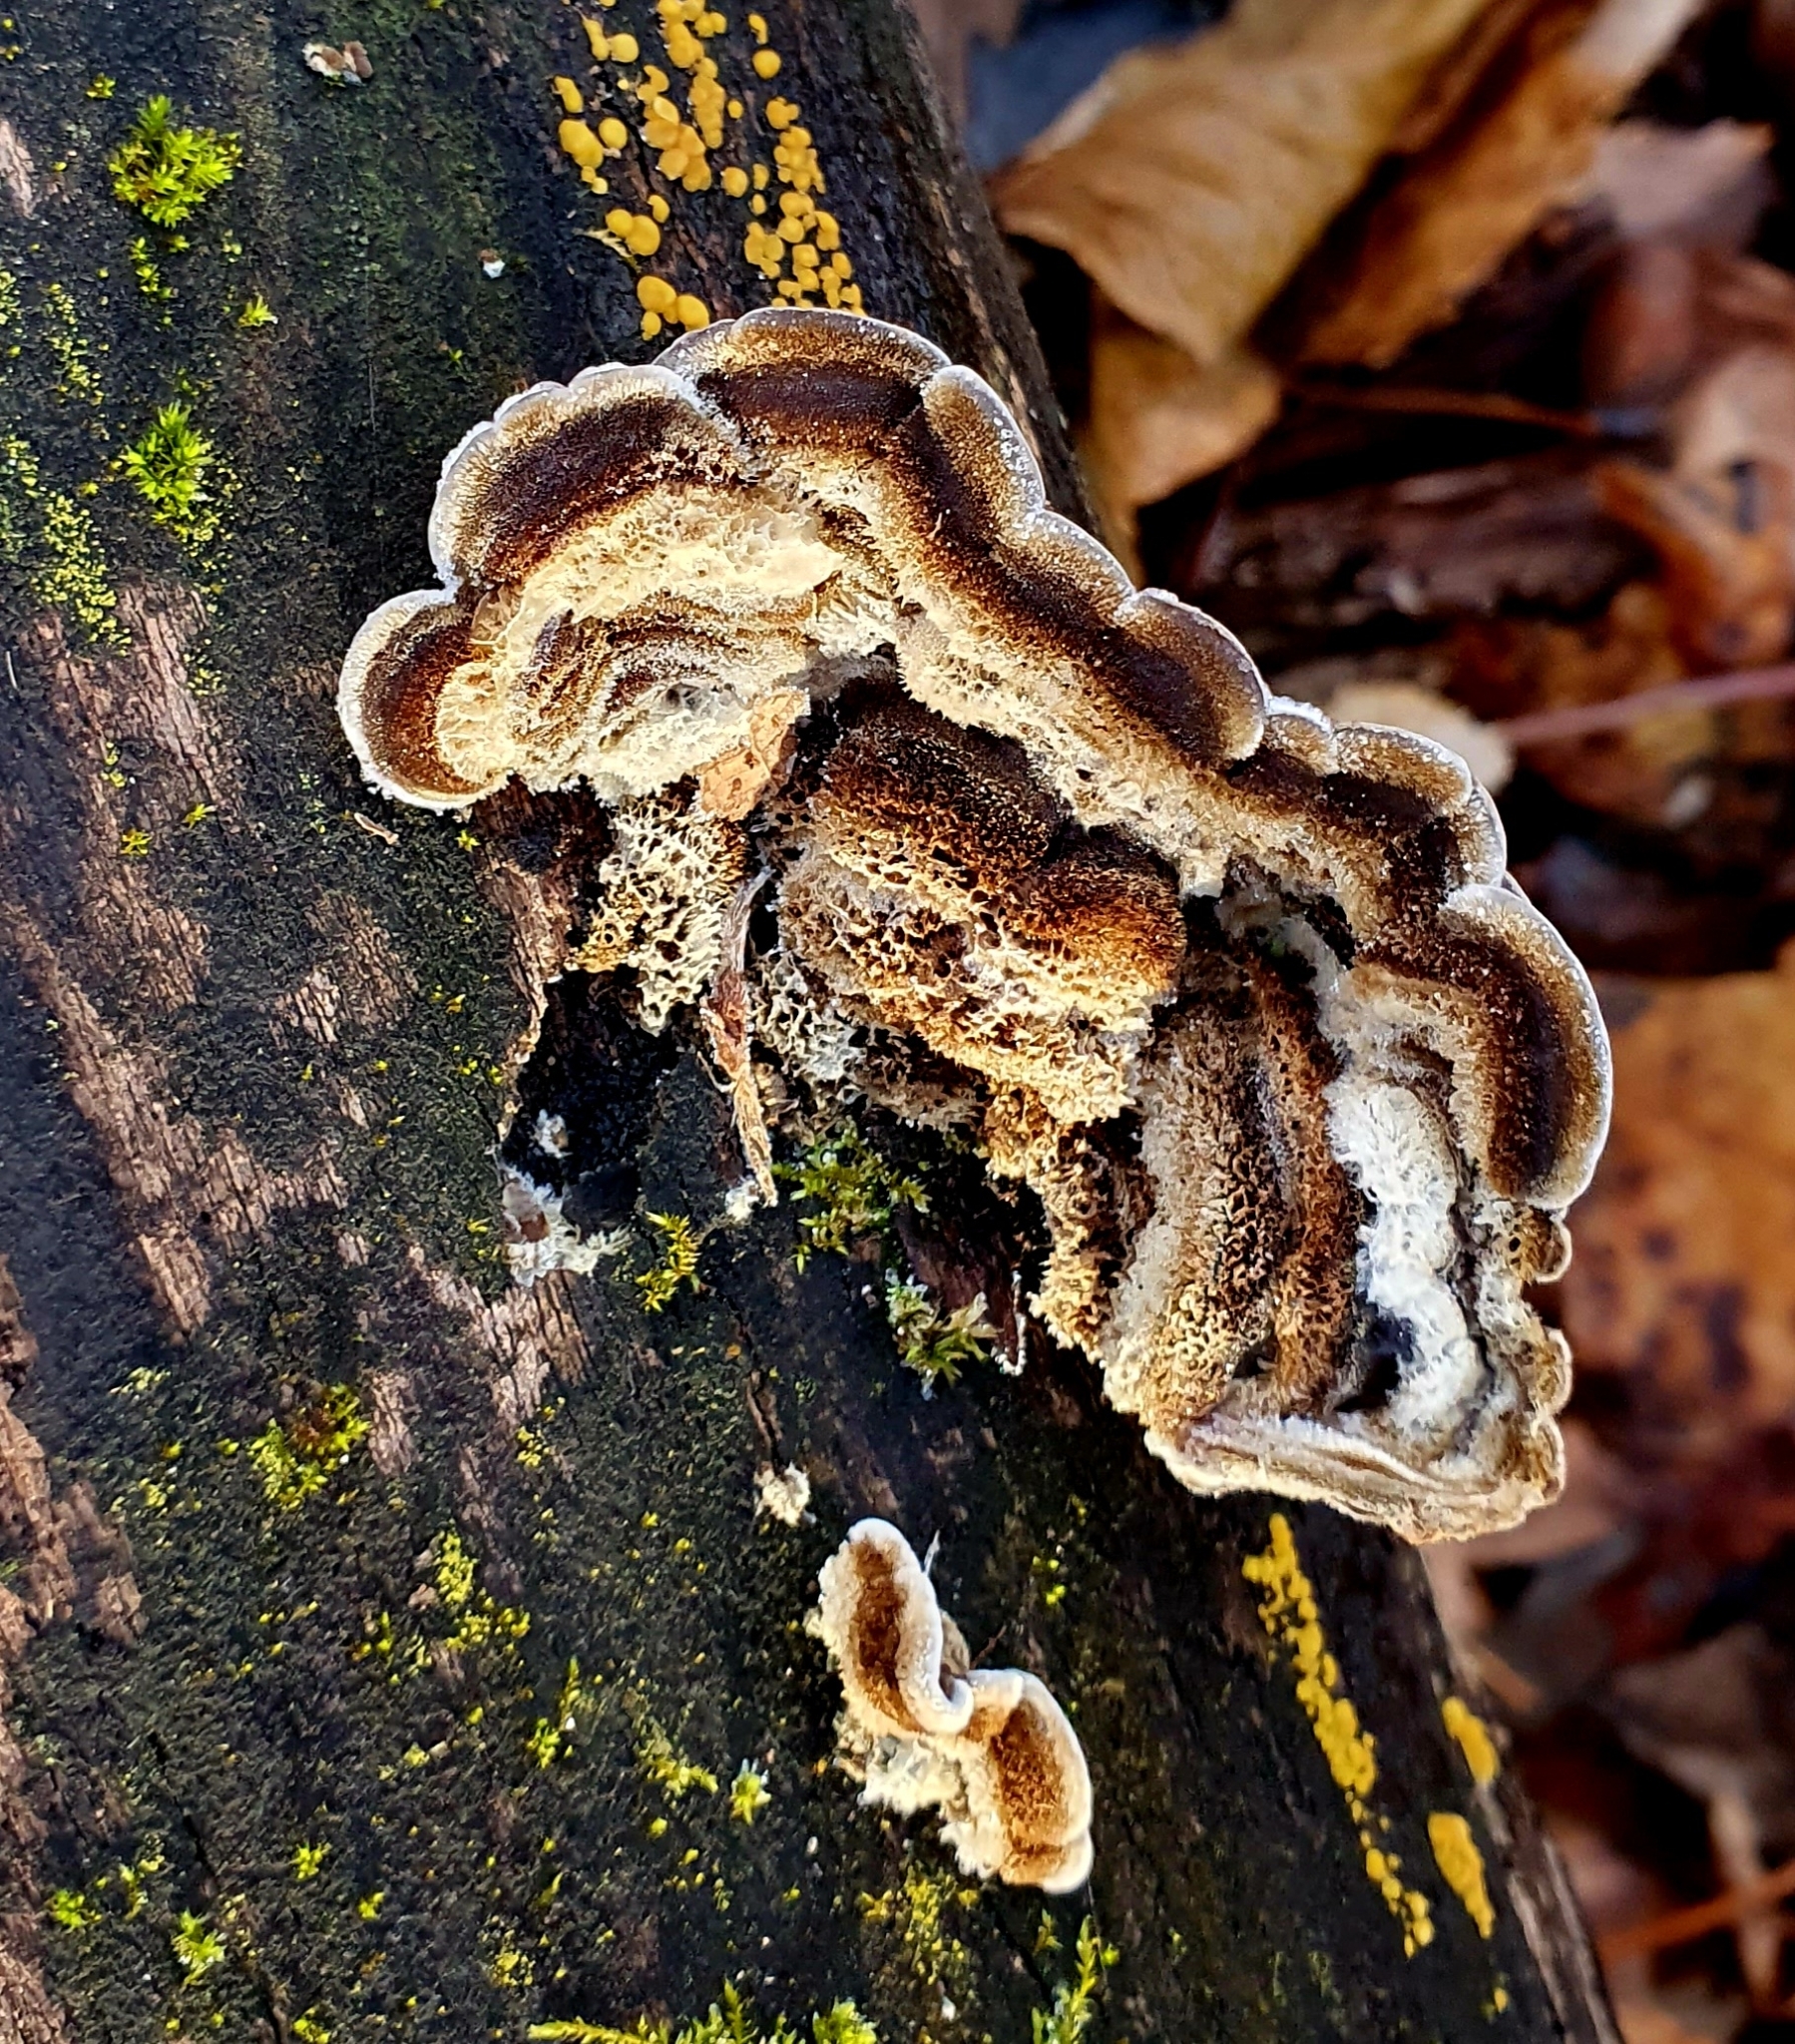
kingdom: Fungi
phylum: Basidiomycota
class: Agaricomycetes
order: Auriculariales
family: Auriculariaceae
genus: Auricularia
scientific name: Auricularia mesenterica
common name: Tripe fungus
